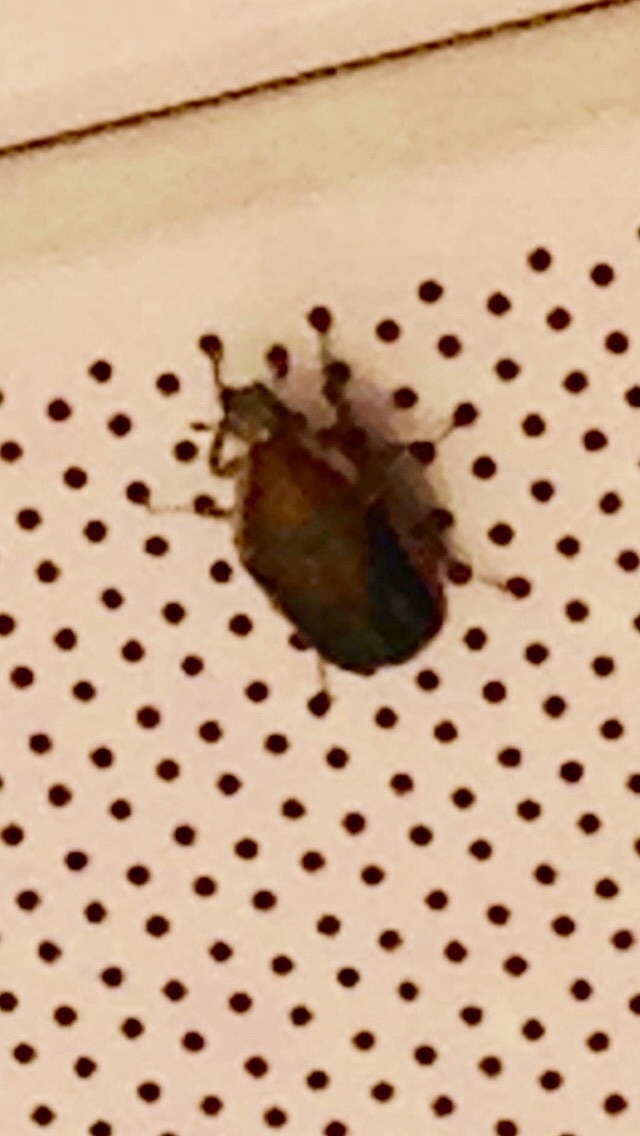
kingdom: Animalia
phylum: Arthropoda
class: Insecta
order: Coleoptera
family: Scarabaeidae
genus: Cotinis
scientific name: Cotinis nitida
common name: Common green june beetle
